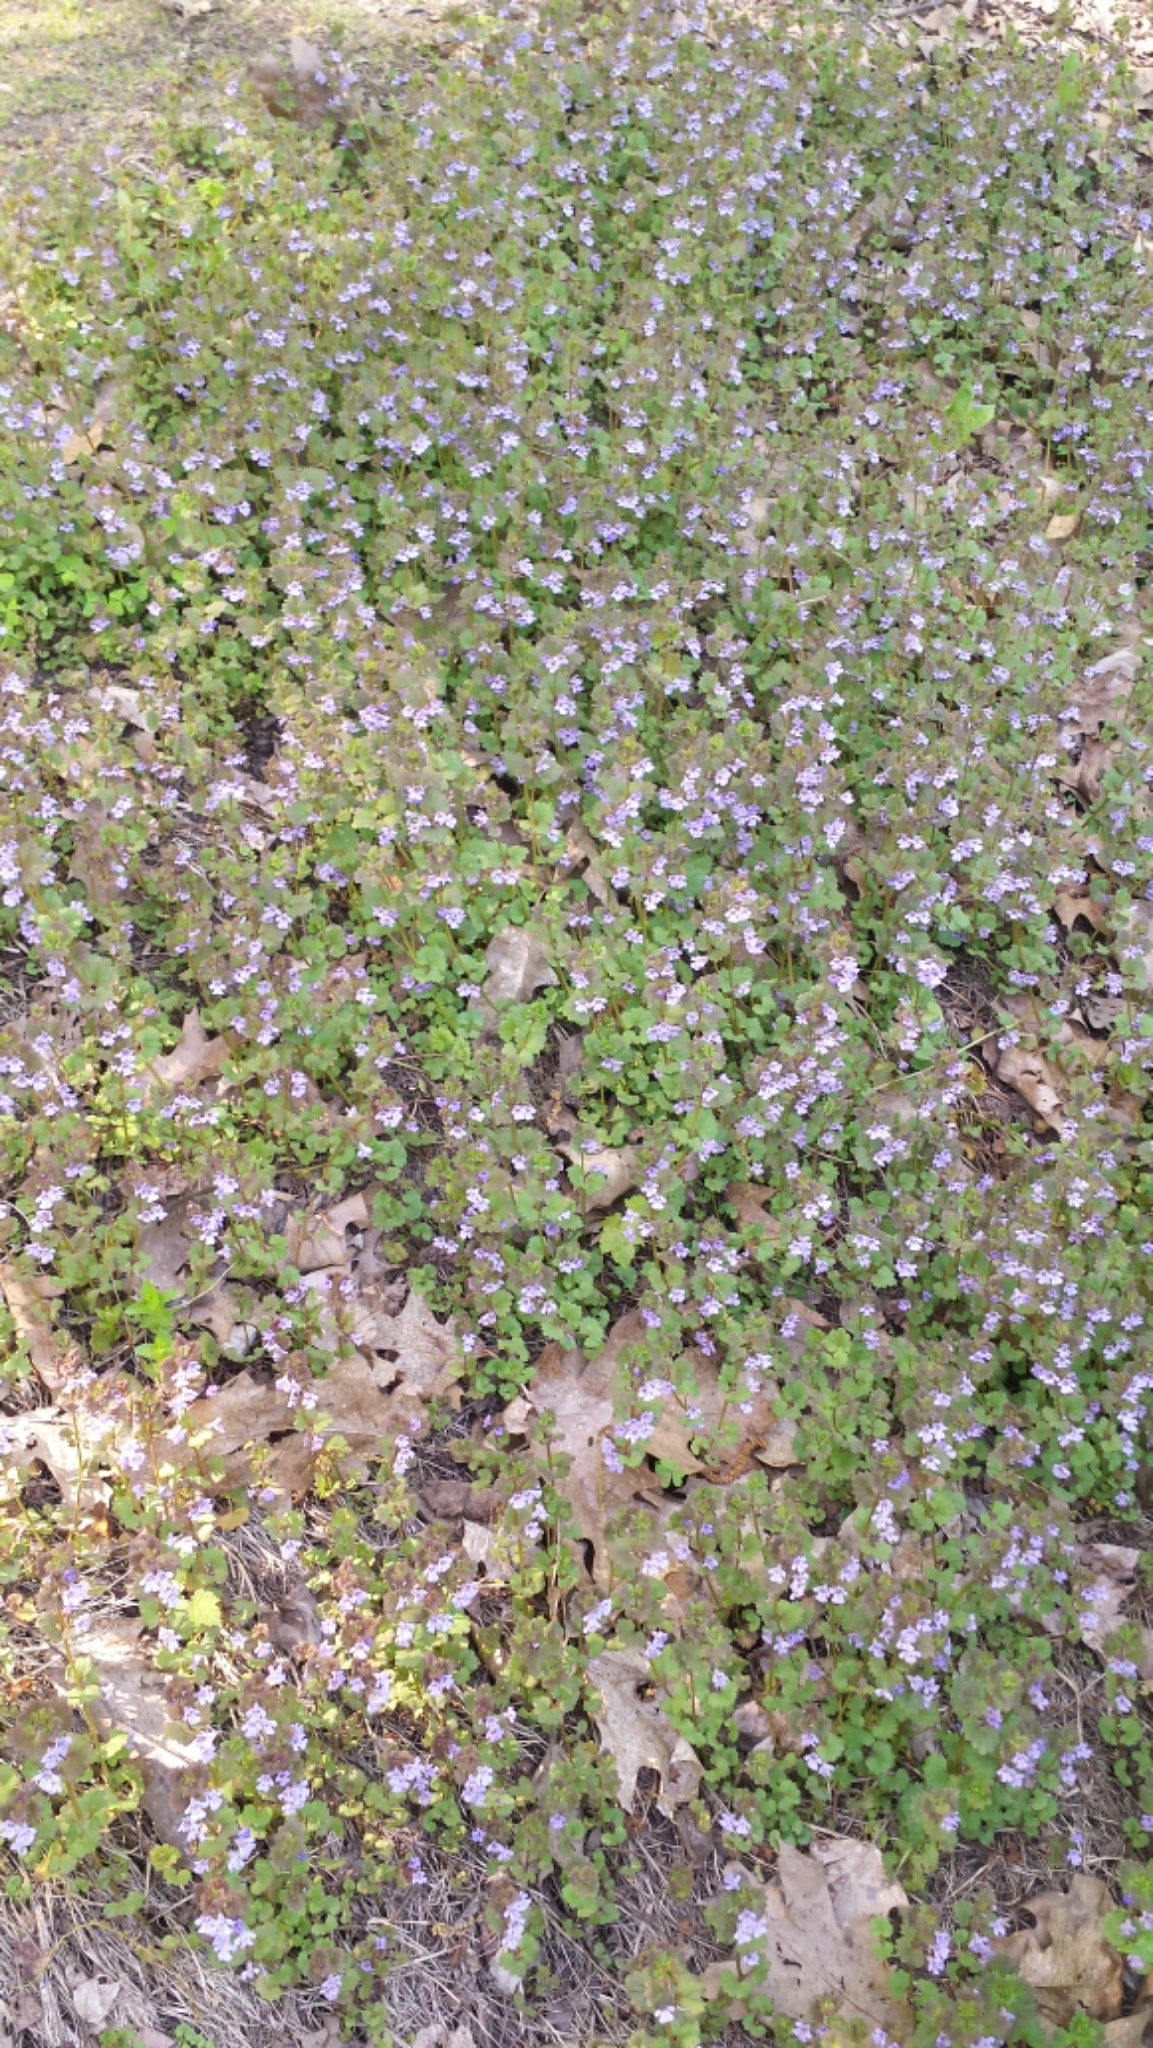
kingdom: Plantae
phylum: Tracheophyta
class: Magnoliopsida
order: Lamiales
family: Lamiaceae
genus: Glechoma
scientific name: Glechoma hederacea
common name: Ground ivy
